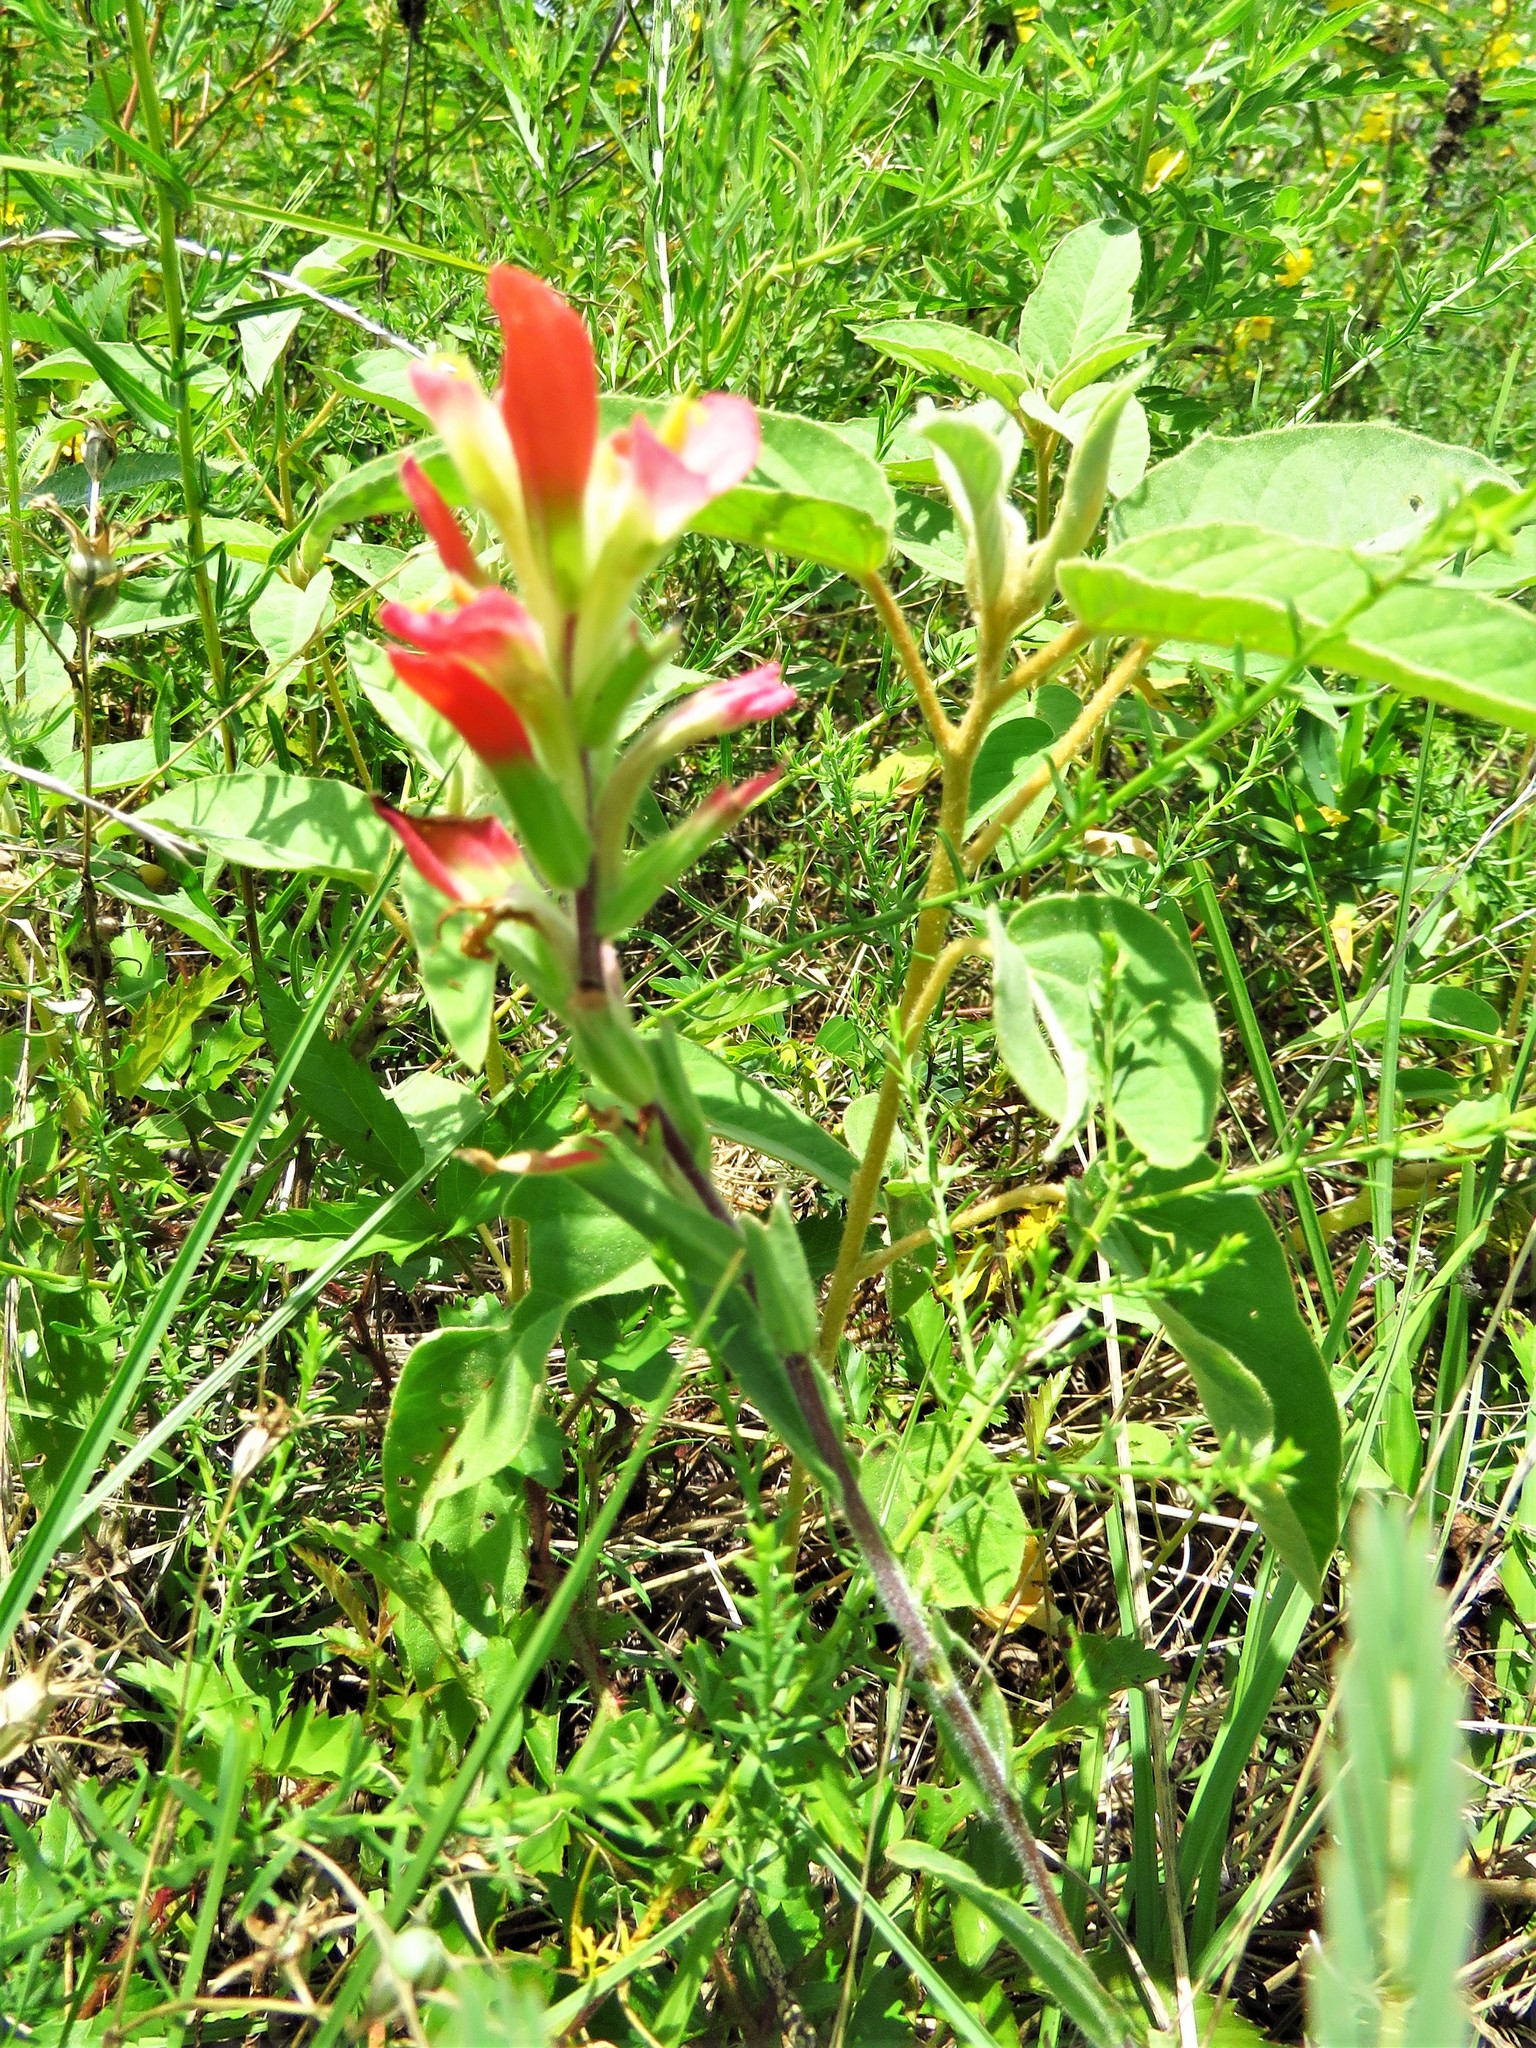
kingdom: Plantae
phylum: Tracheophyta
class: Magnoliopsida
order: Lamiales
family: Orobanchaceae
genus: Castilleja
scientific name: Castilleja indivisa
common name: Texas paintbrush
